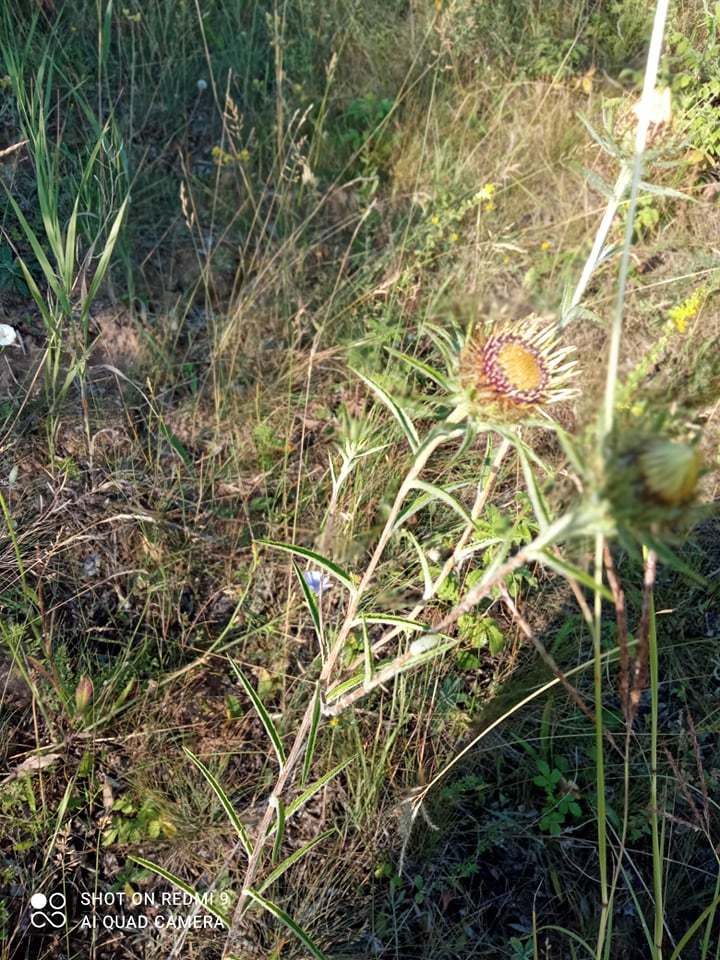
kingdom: Plantae
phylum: Tracheophyta
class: Magnoliopsida
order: Asterales
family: Asteraceae
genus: Carlina
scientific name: Carlina biebersteinii
